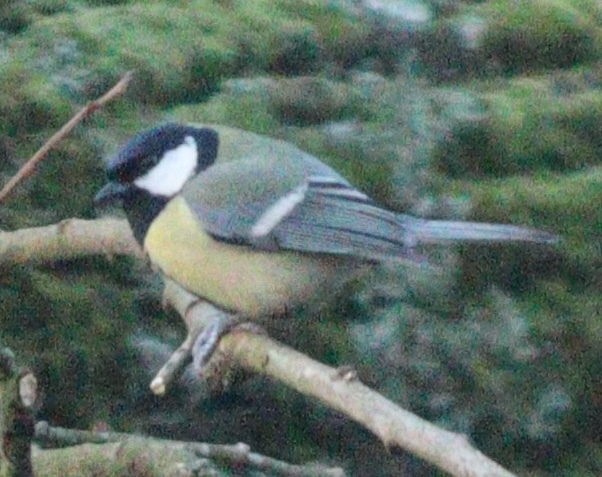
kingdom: Animalia
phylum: Chordata
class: Aves
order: Passeriformes
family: Paridae
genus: Parus
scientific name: Parus major
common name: Great tit
